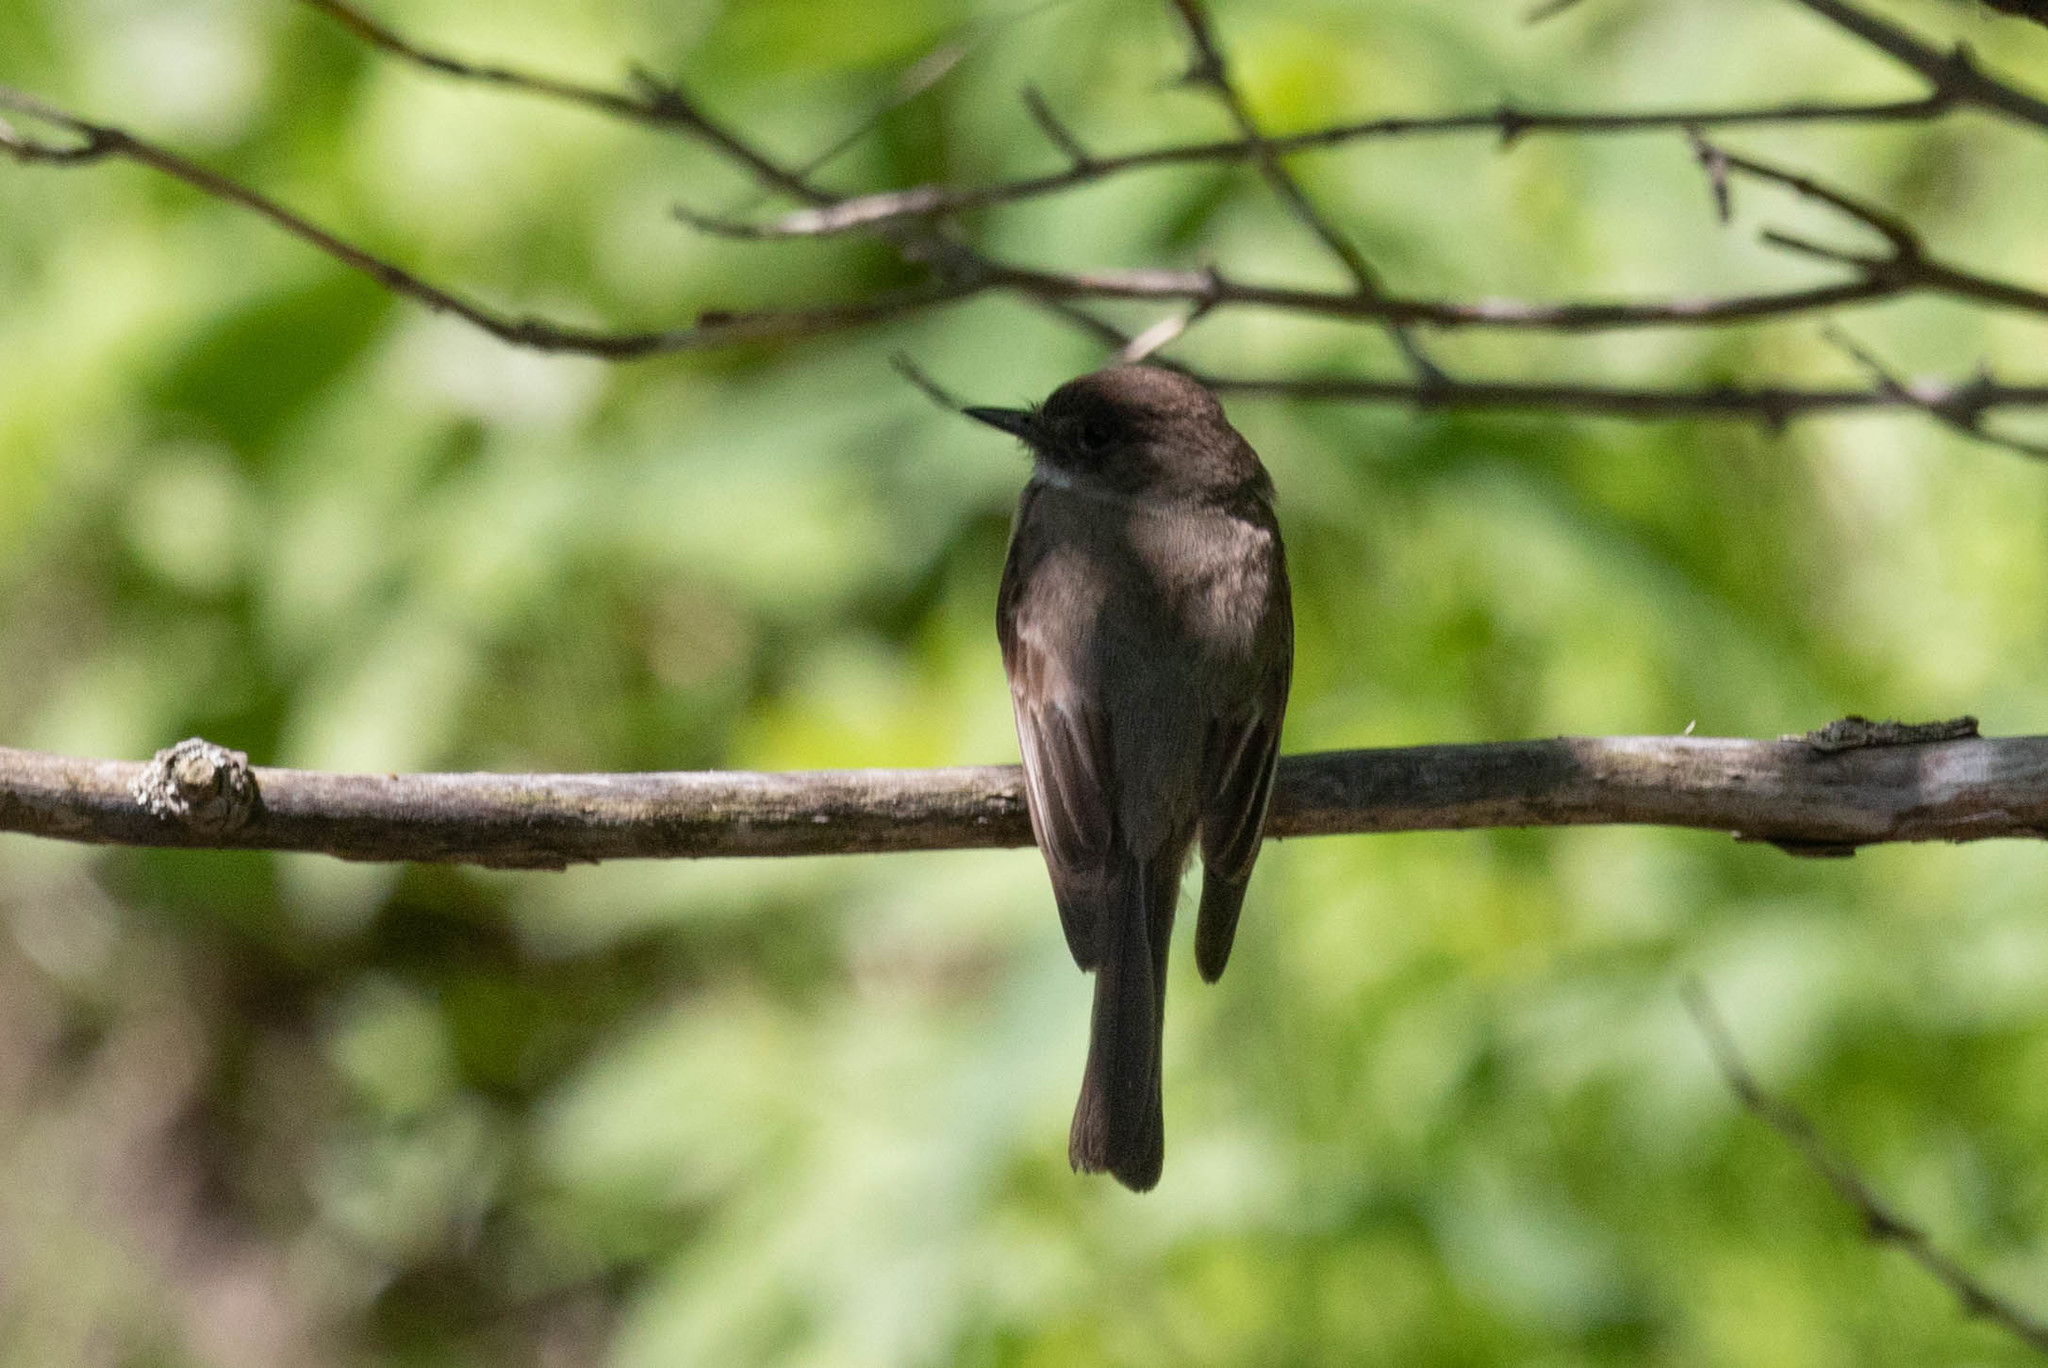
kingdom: Animalia
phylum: Chordata
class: Aves
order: Passeriformes
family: Tyrannidae
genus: Sayornis
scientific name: Sayornis phoebe
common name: Eastern phoebe
